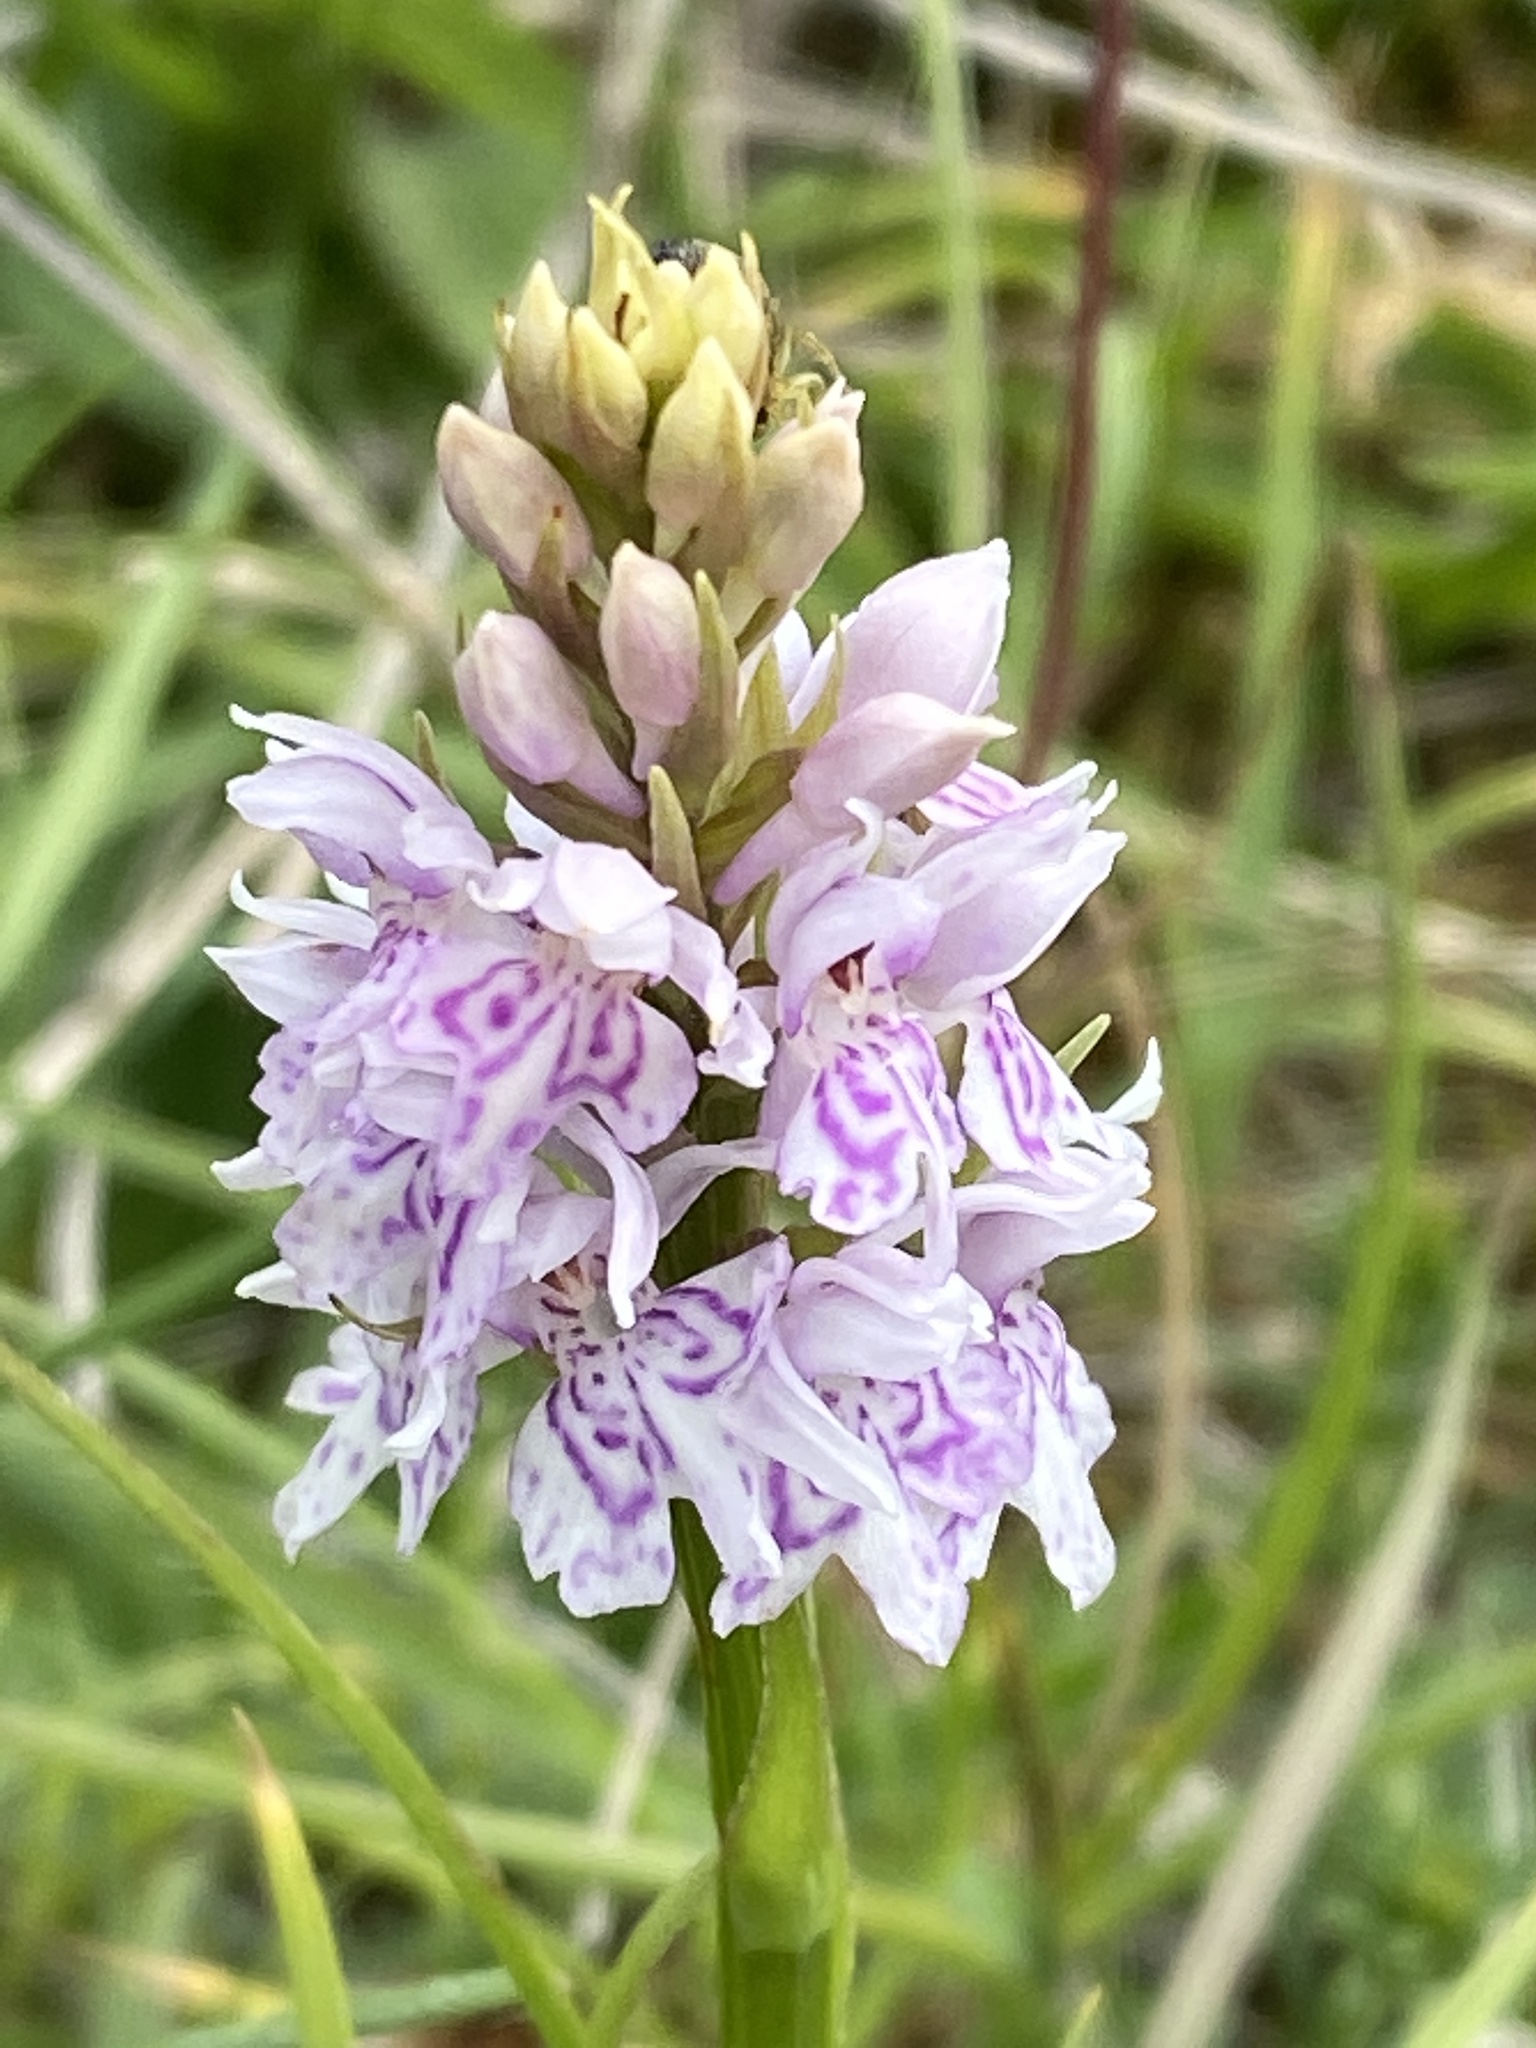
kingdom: Plantae
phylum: Tracheophyta
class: Liliopsida
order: Asparagales
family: Orchidaceae
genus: Dactylorhiza
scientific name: Dactylorhiza maculata
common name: Heath spotted-orchid
